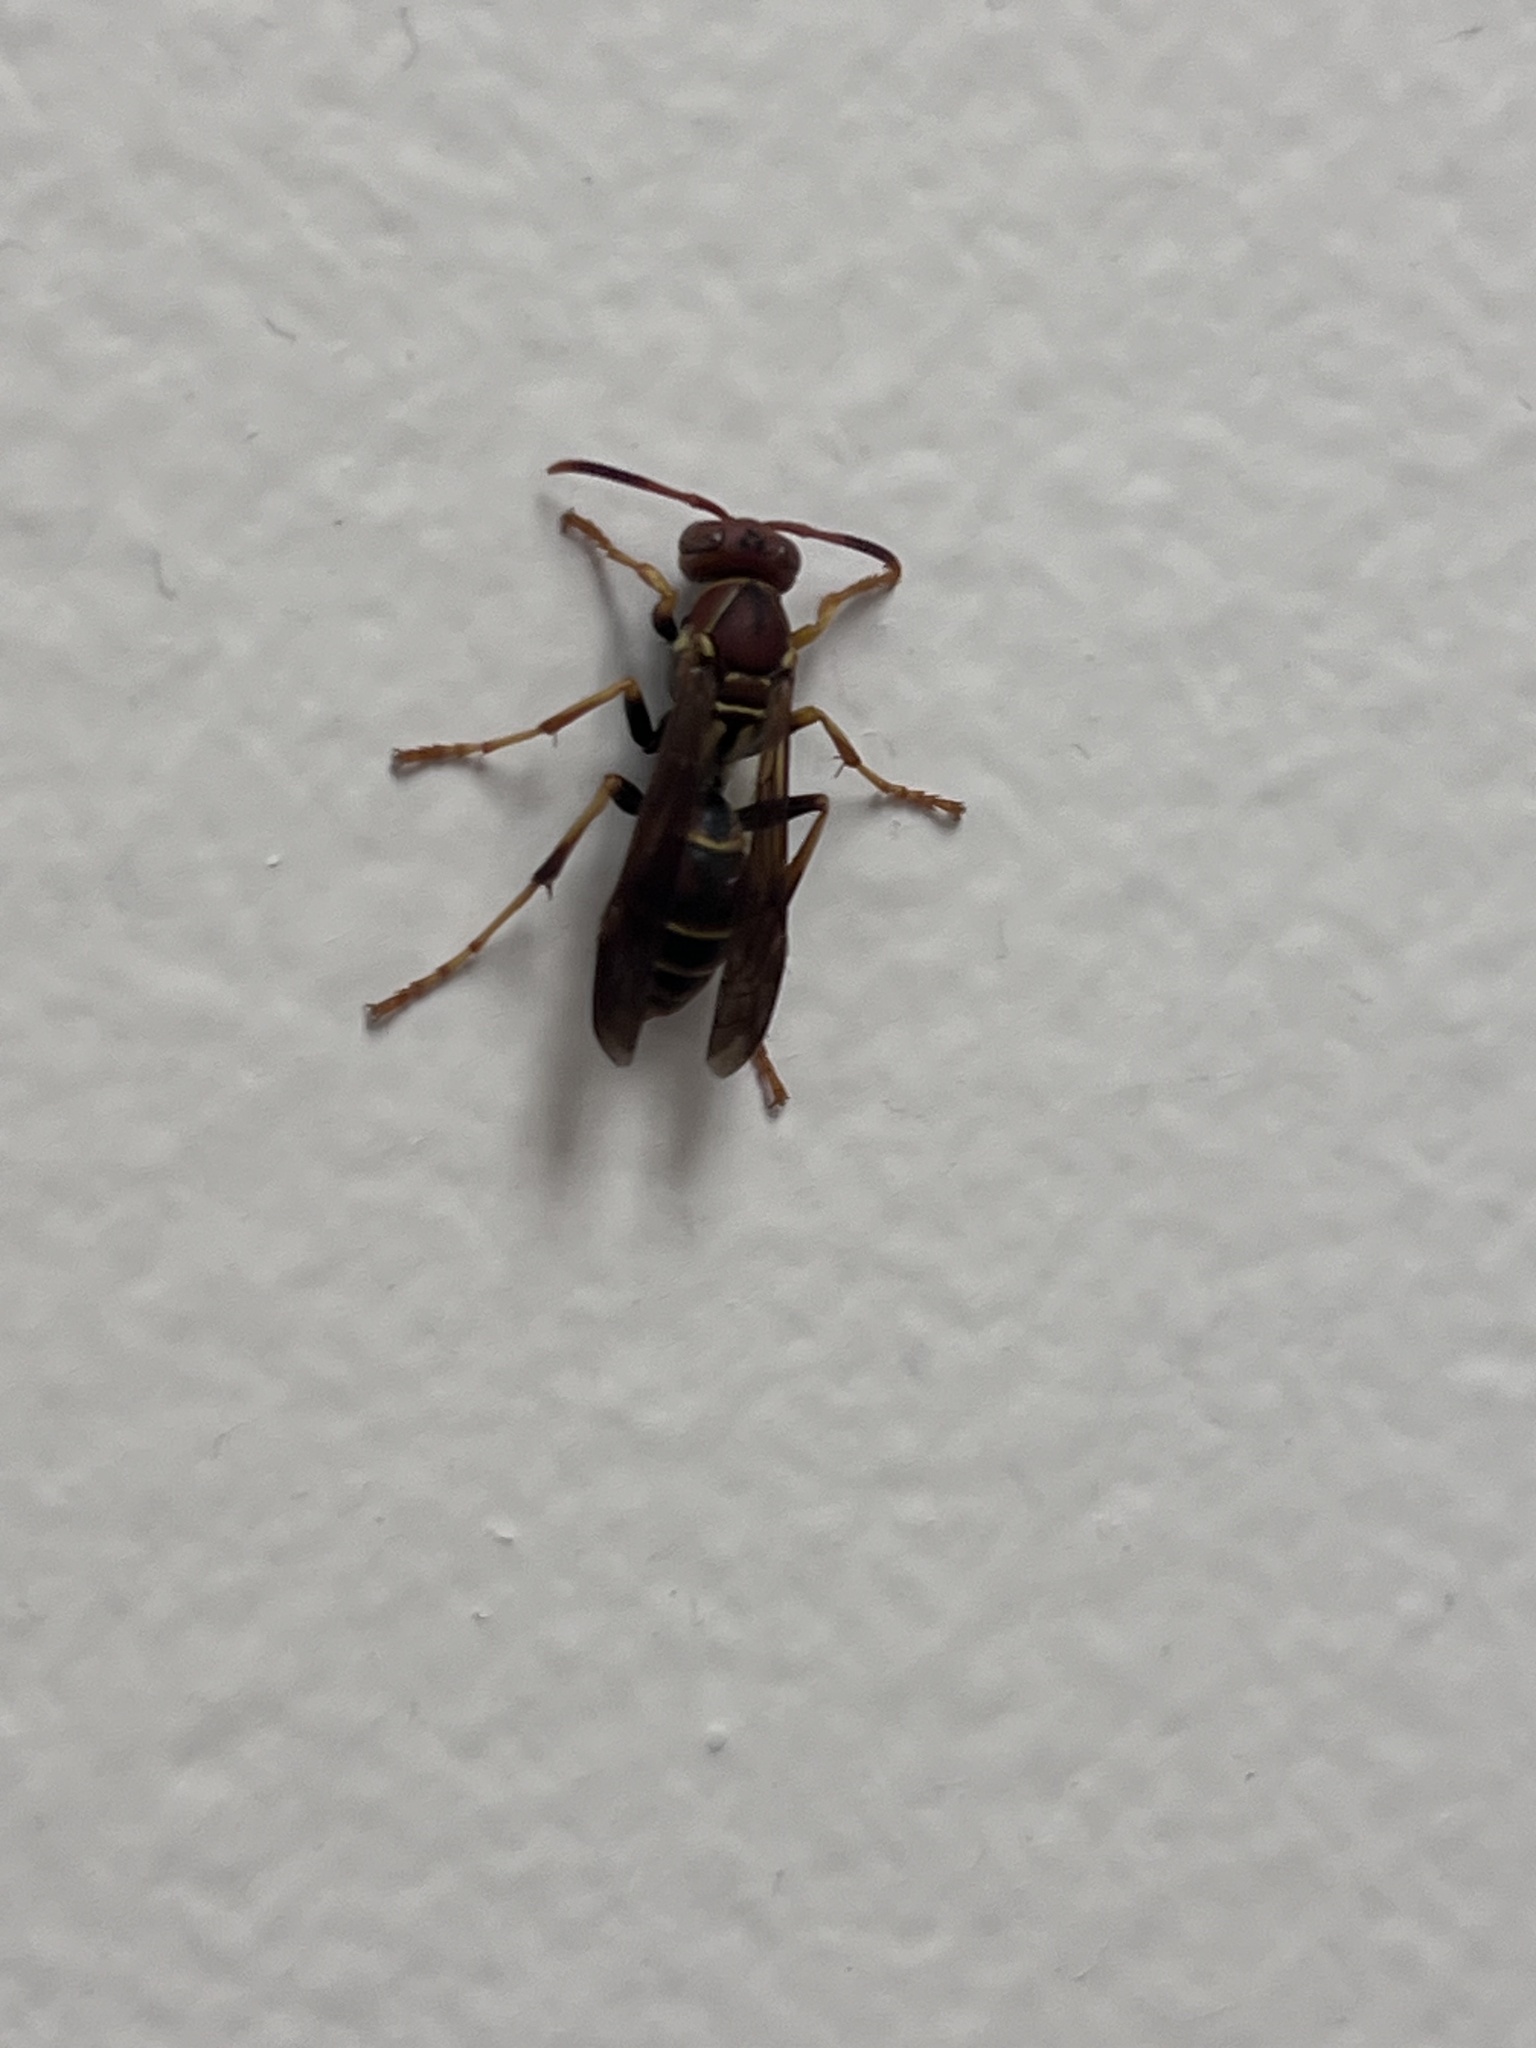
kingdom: Animalia
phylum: Arthropoda
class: Insecta
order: Hymenoptera
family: Eumenidae
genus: Polistes
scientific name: Polistes dorsalis
